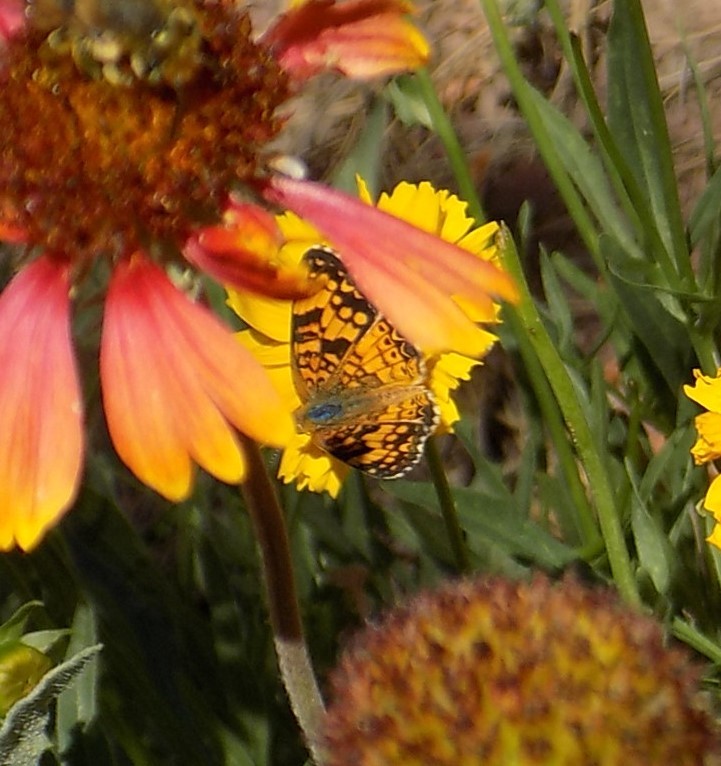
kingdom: Animalia
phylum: Arthropoda
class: Insecta
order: Lepidoptera
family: Nymphalidae
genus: Eresia
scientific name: Eresia aveyrona
